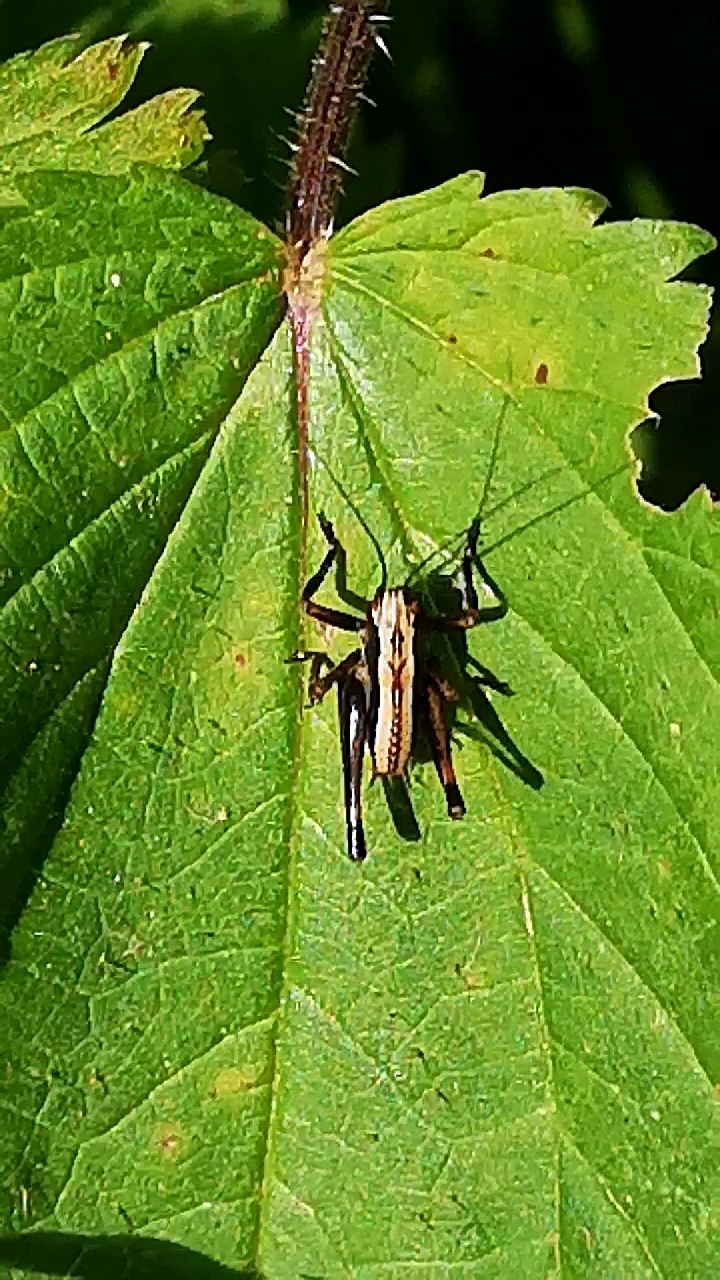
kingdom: Animalia
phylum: Arthropoda
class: Insecta
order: Orthoptera
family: Tettigoniidae
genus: Pholidoptera
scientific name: Pholidoptera griseoaptera
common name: Dark bush-cricket
